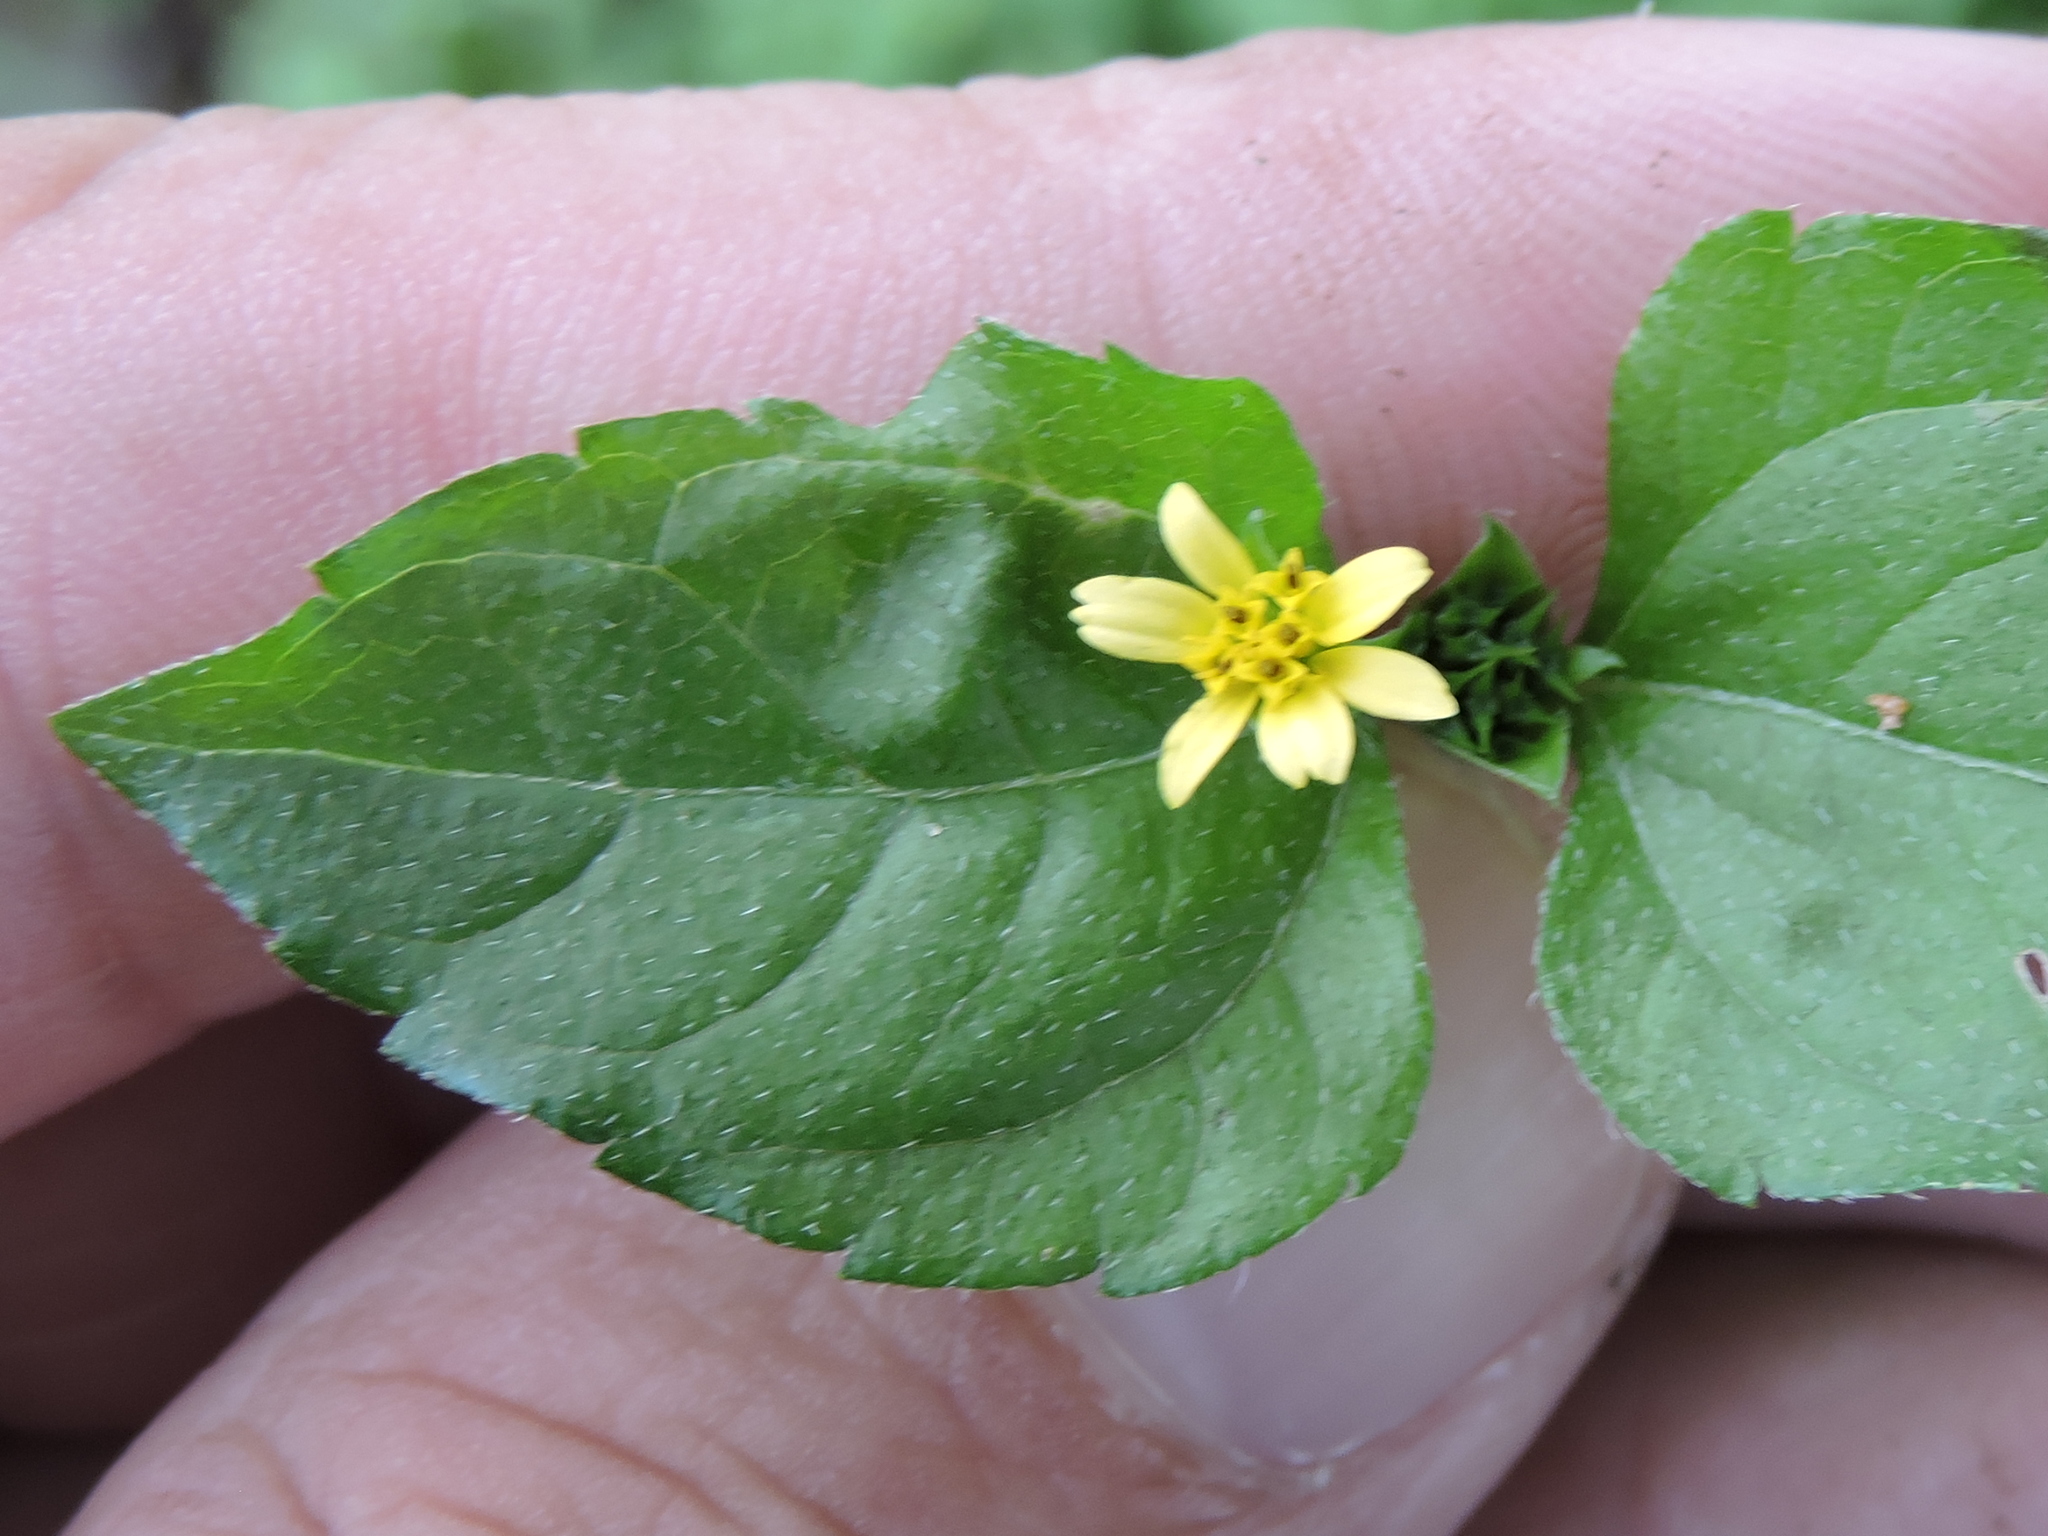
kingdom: Plantae
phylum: Tracheophyta
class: Magnoliopsida
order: Asterales
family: Asteraceae
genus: Calyptocarpus
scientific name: Calyptocarpus vialis
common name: Straggler daisy
